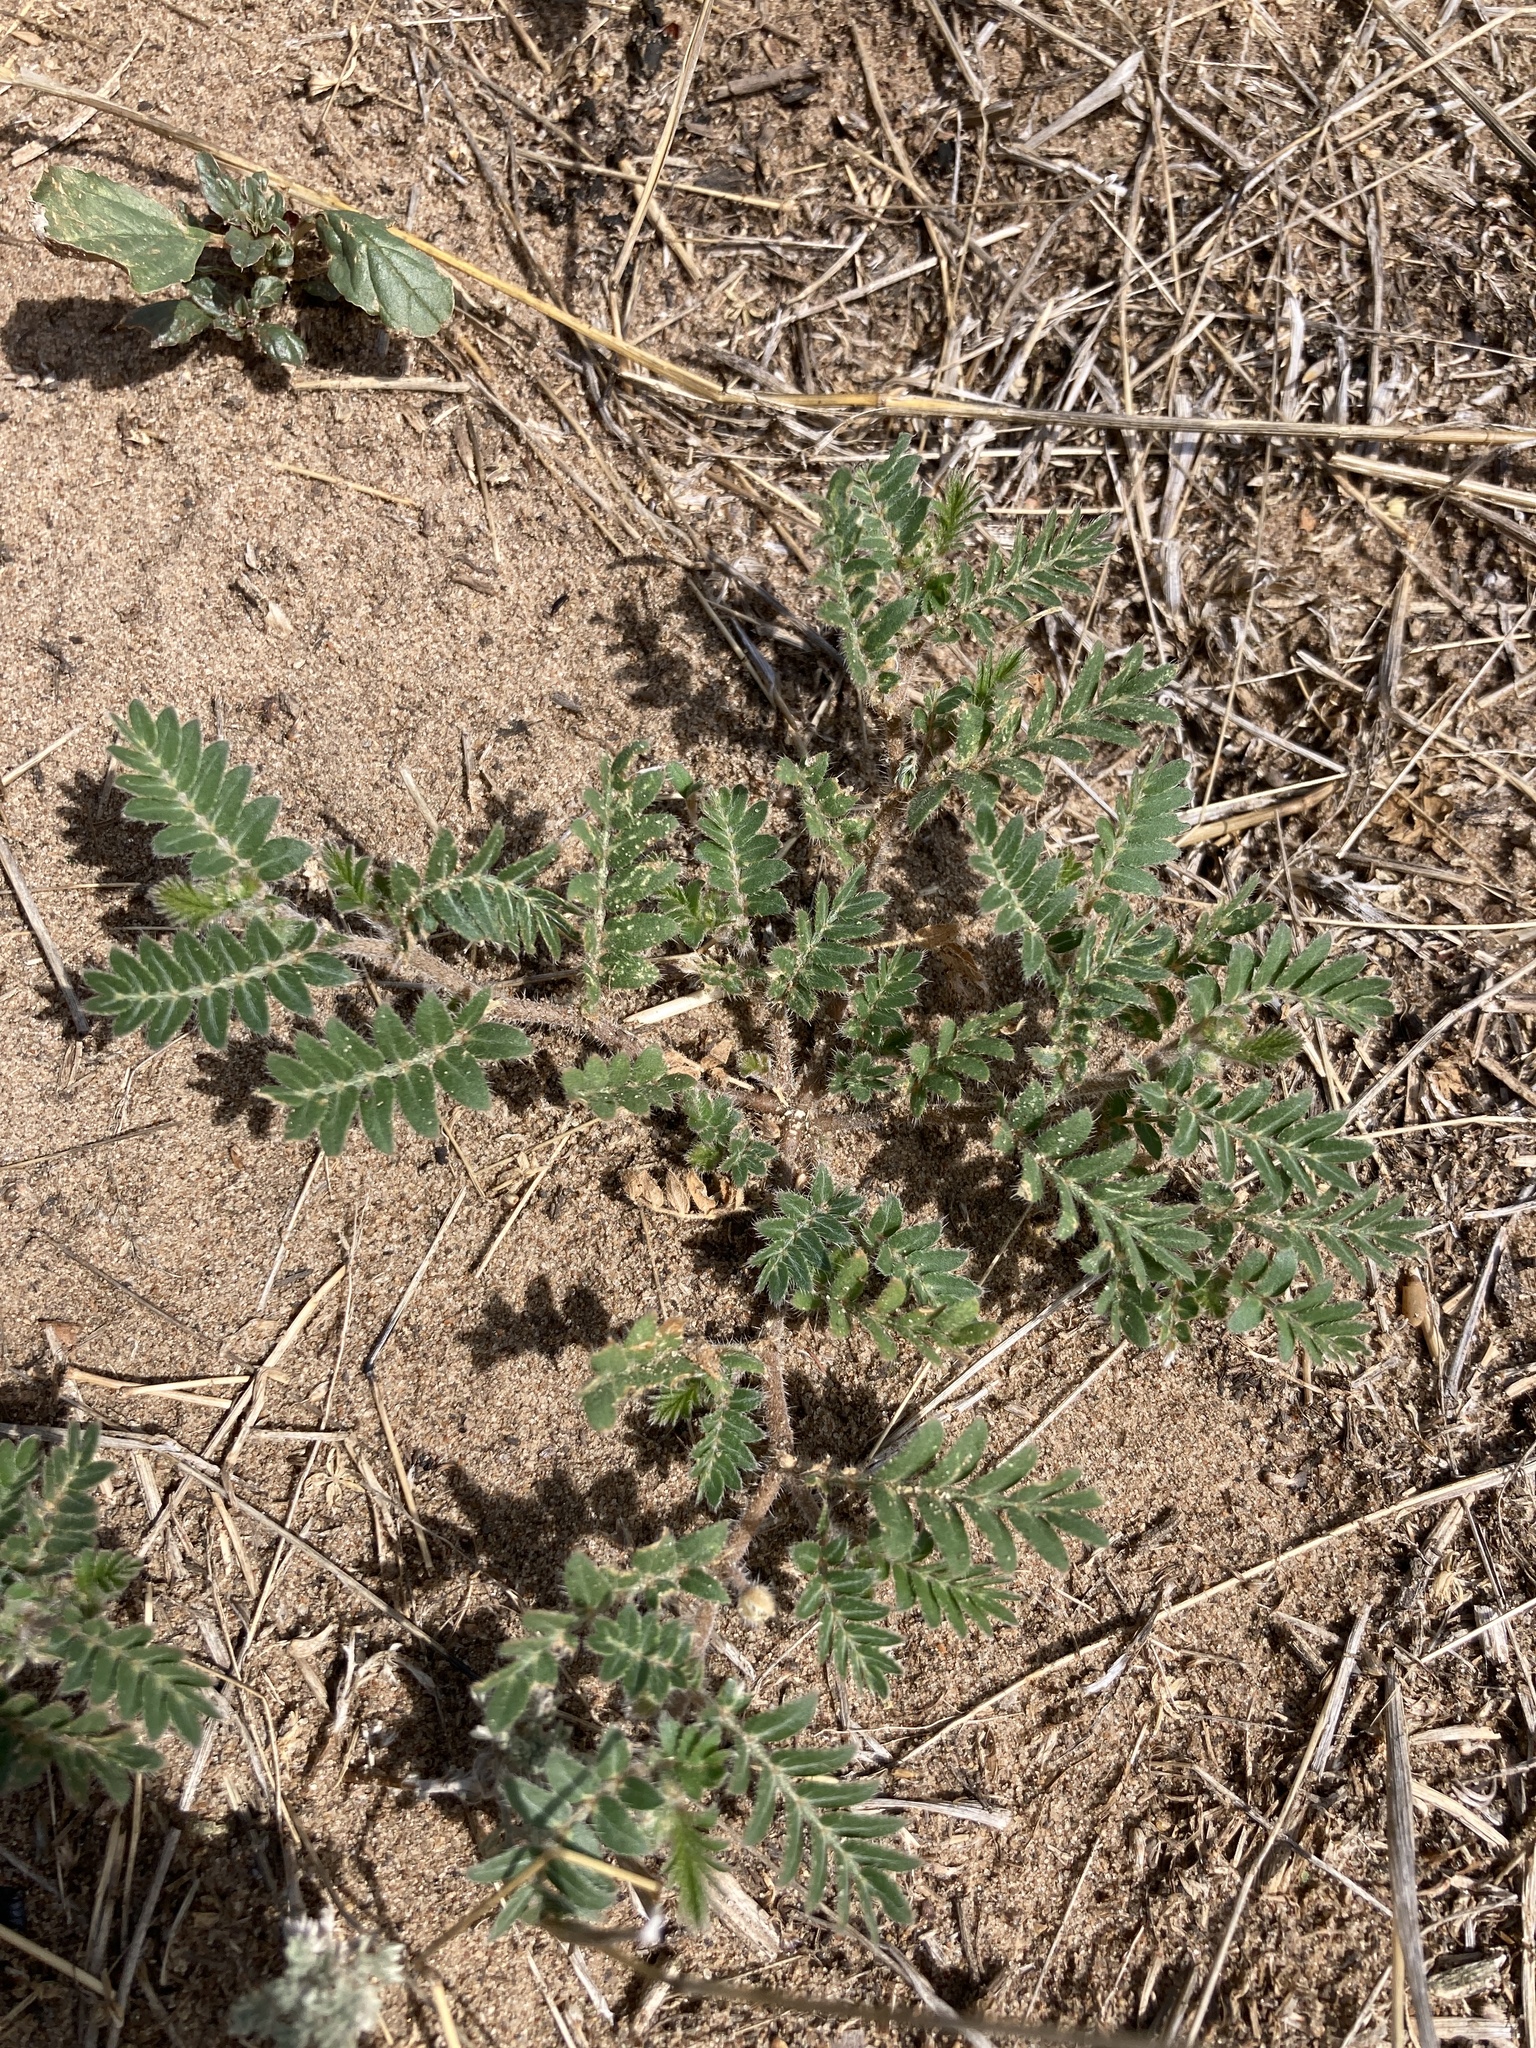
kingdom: Plantae
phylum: Tracheophyta
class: Magnoliopsida
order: Zygophyllales
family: Zygophyllaceae
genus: Tribulus
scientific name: Tribulus terrestris
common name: Puncturevine
